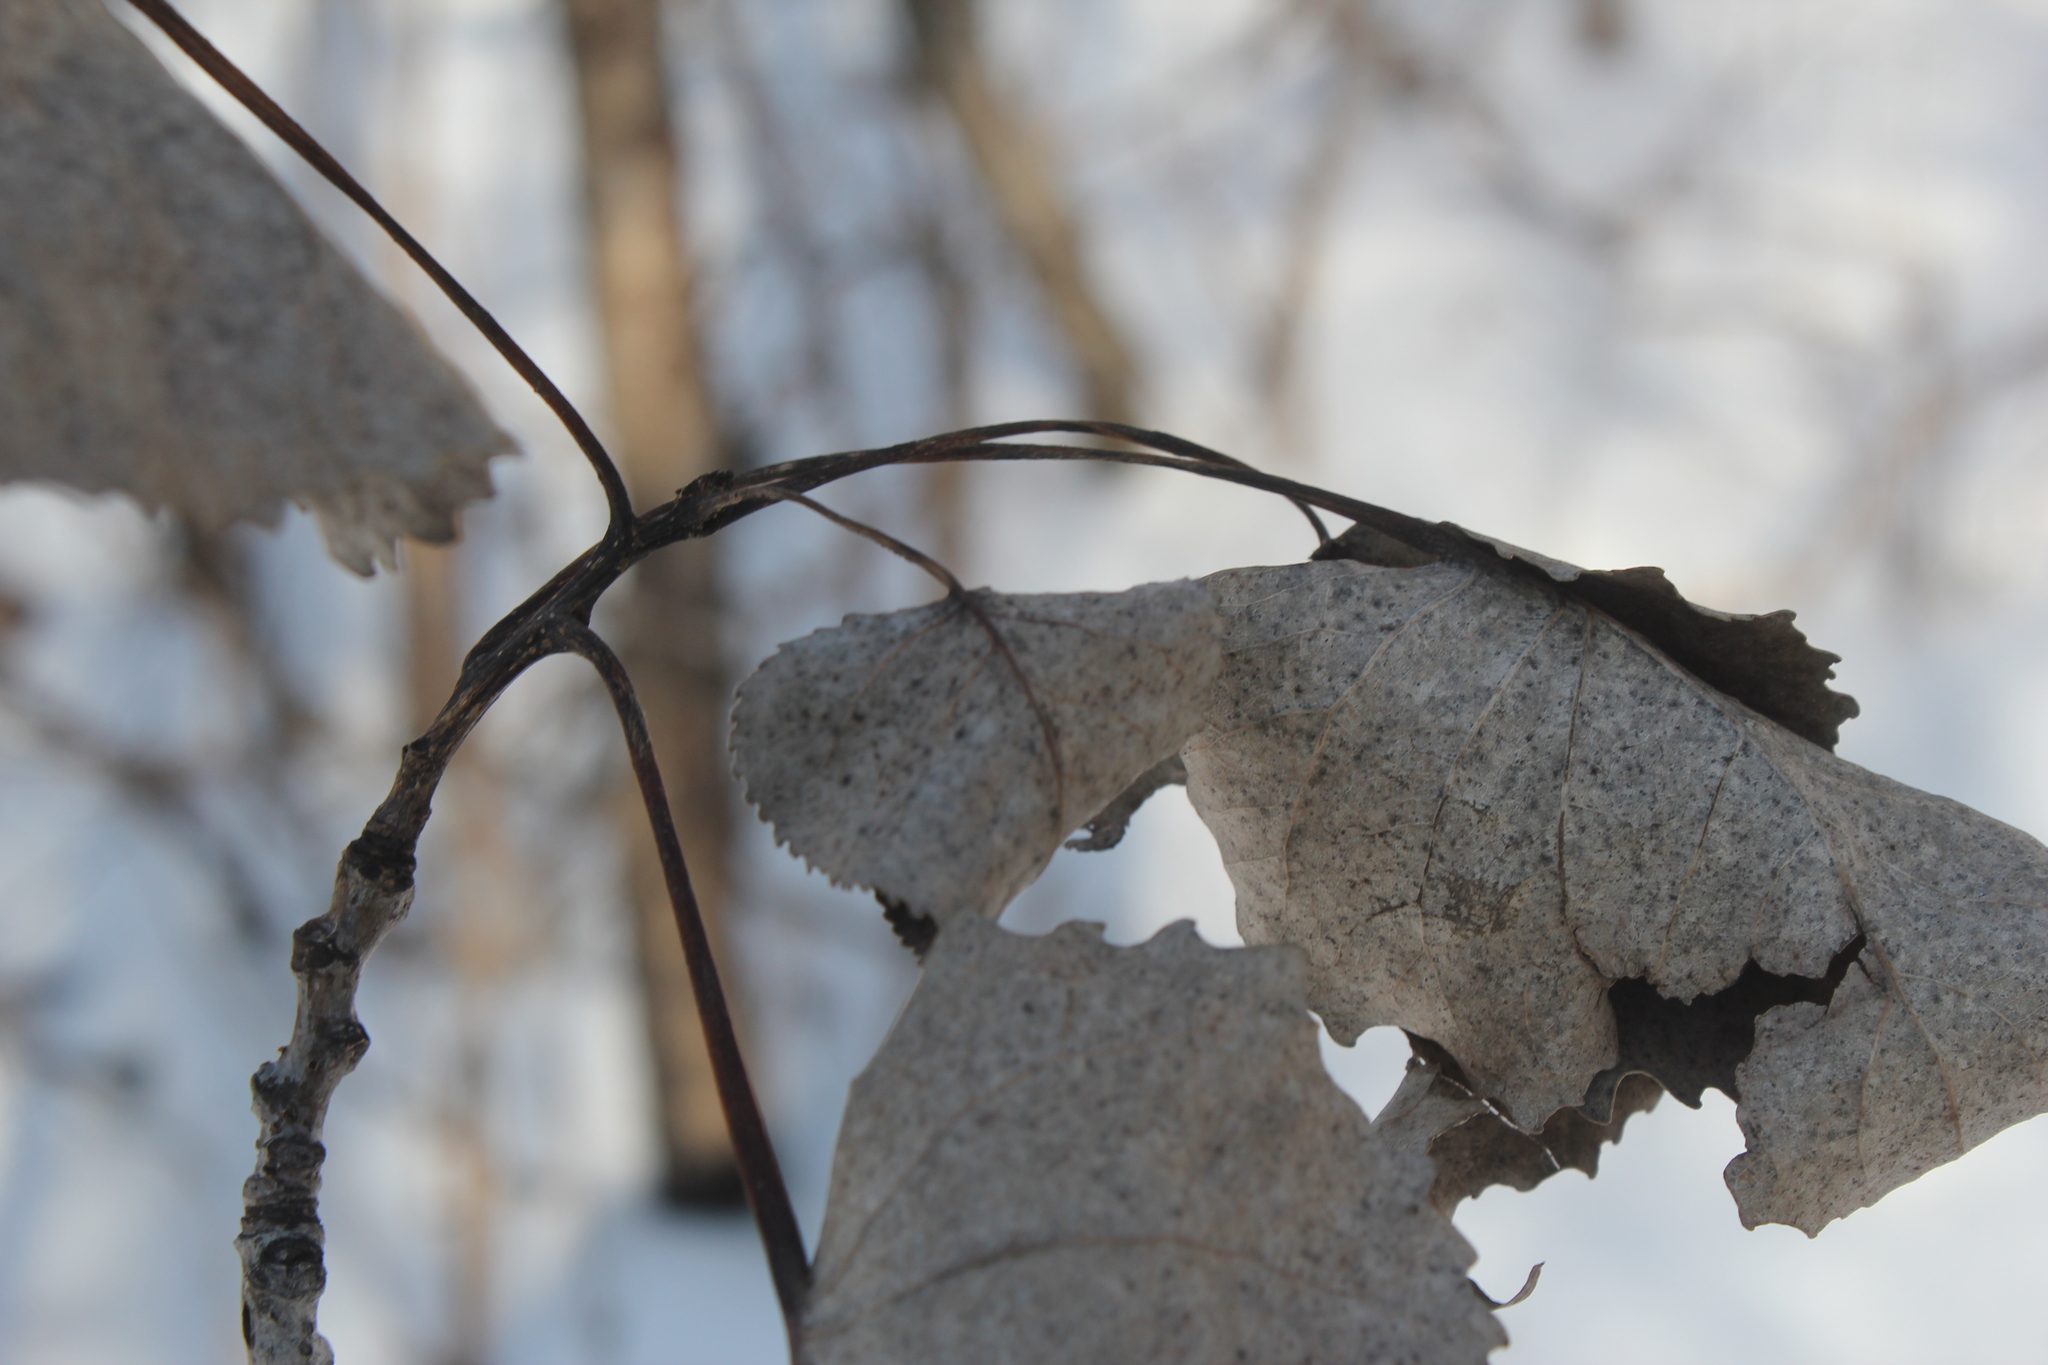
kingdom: Plantae
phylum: Tracheophyta
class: Magnoliopsida
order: Malpighiales
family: Salicaceae
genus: Populus
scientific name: Populus deltoides
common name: Eastern cottonwood
